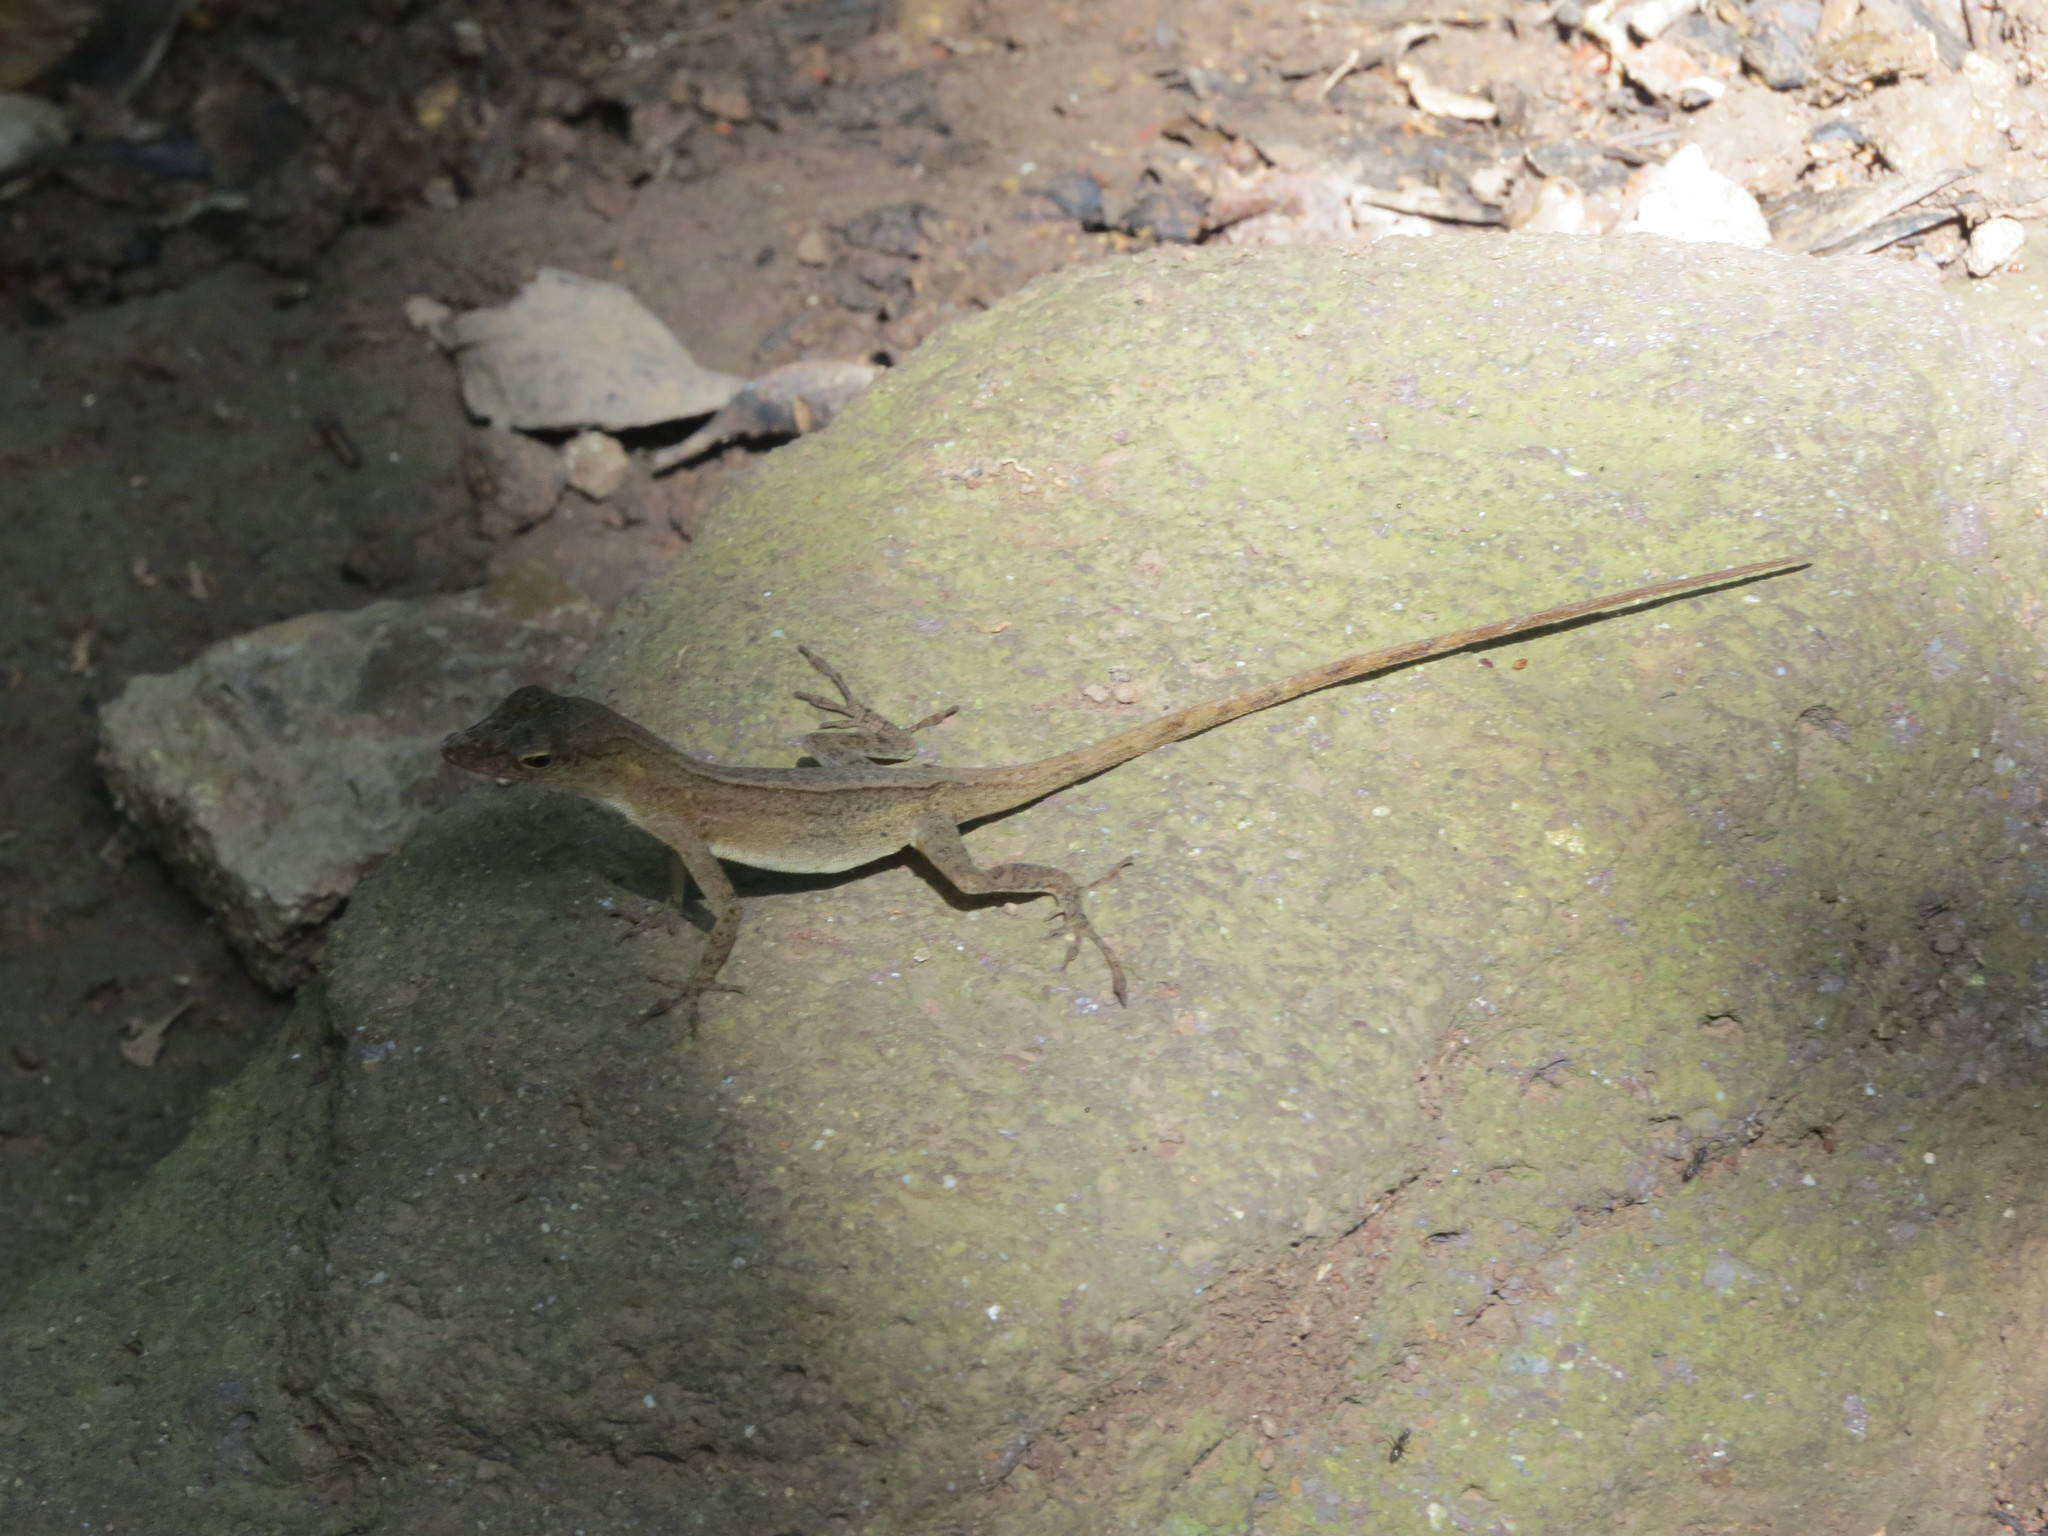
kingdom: Animalia
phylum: Chordata
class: Squamata
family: Dactyloidae
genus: Anolis
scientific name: Anolis pinchoti
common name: Crab cay anole
